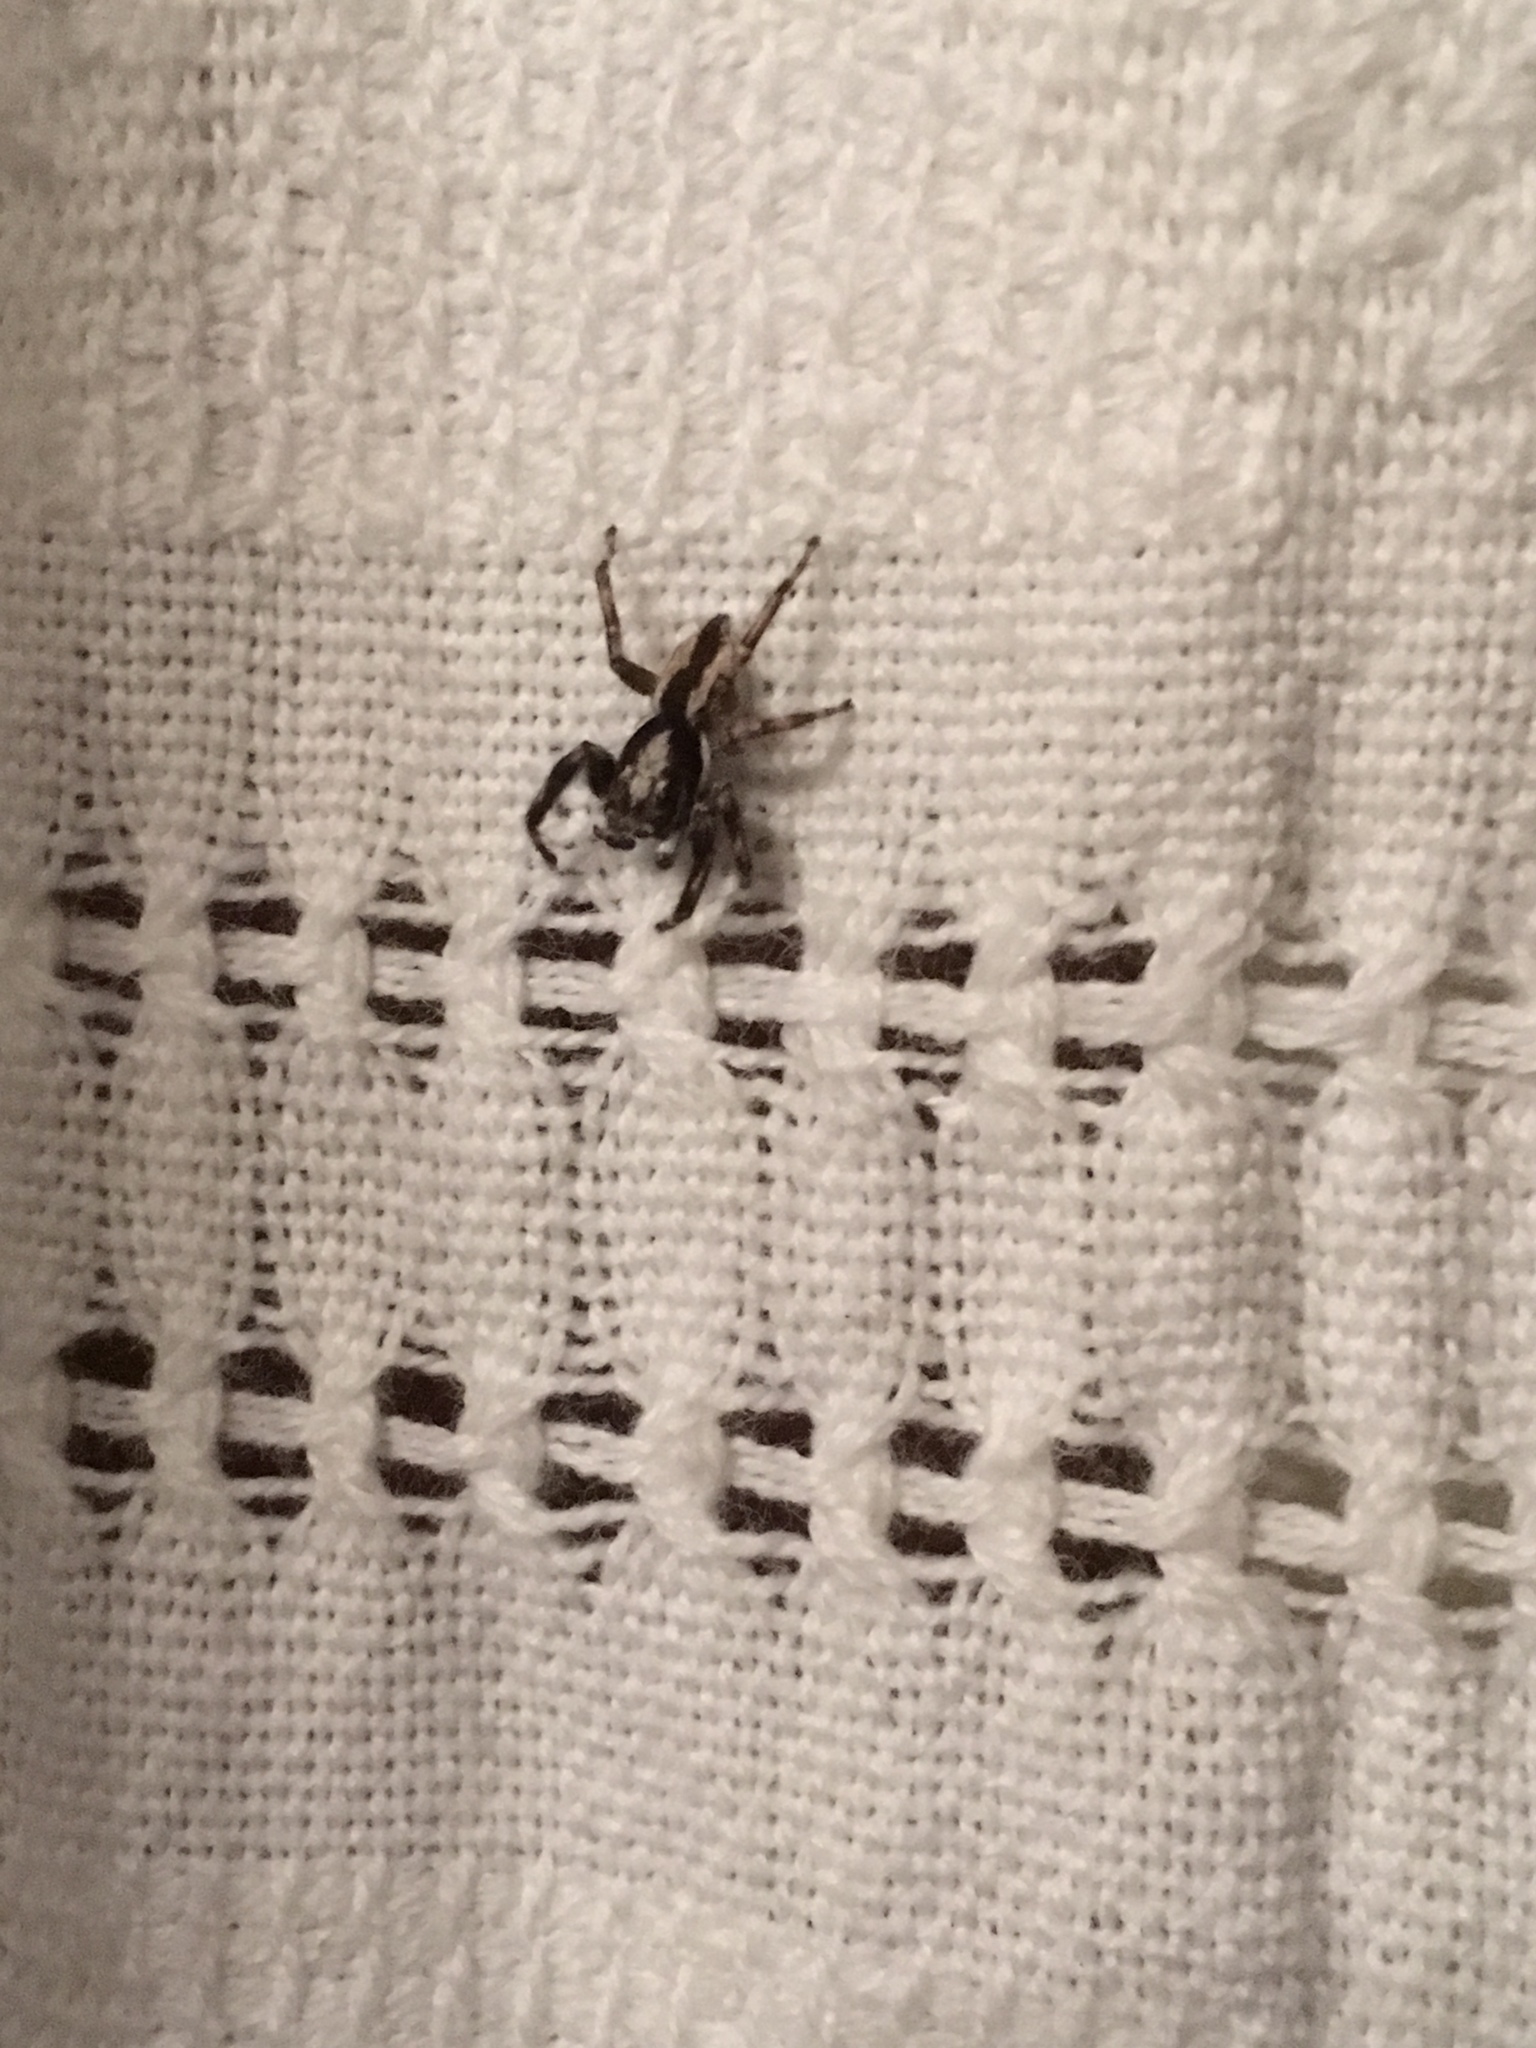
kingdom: Animalia
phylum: Arthropoda
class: Arachnida
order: Araneae
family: Salticidae
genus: Menemerus
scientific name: Menemerus bivittatus
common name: Gray wall jumper
